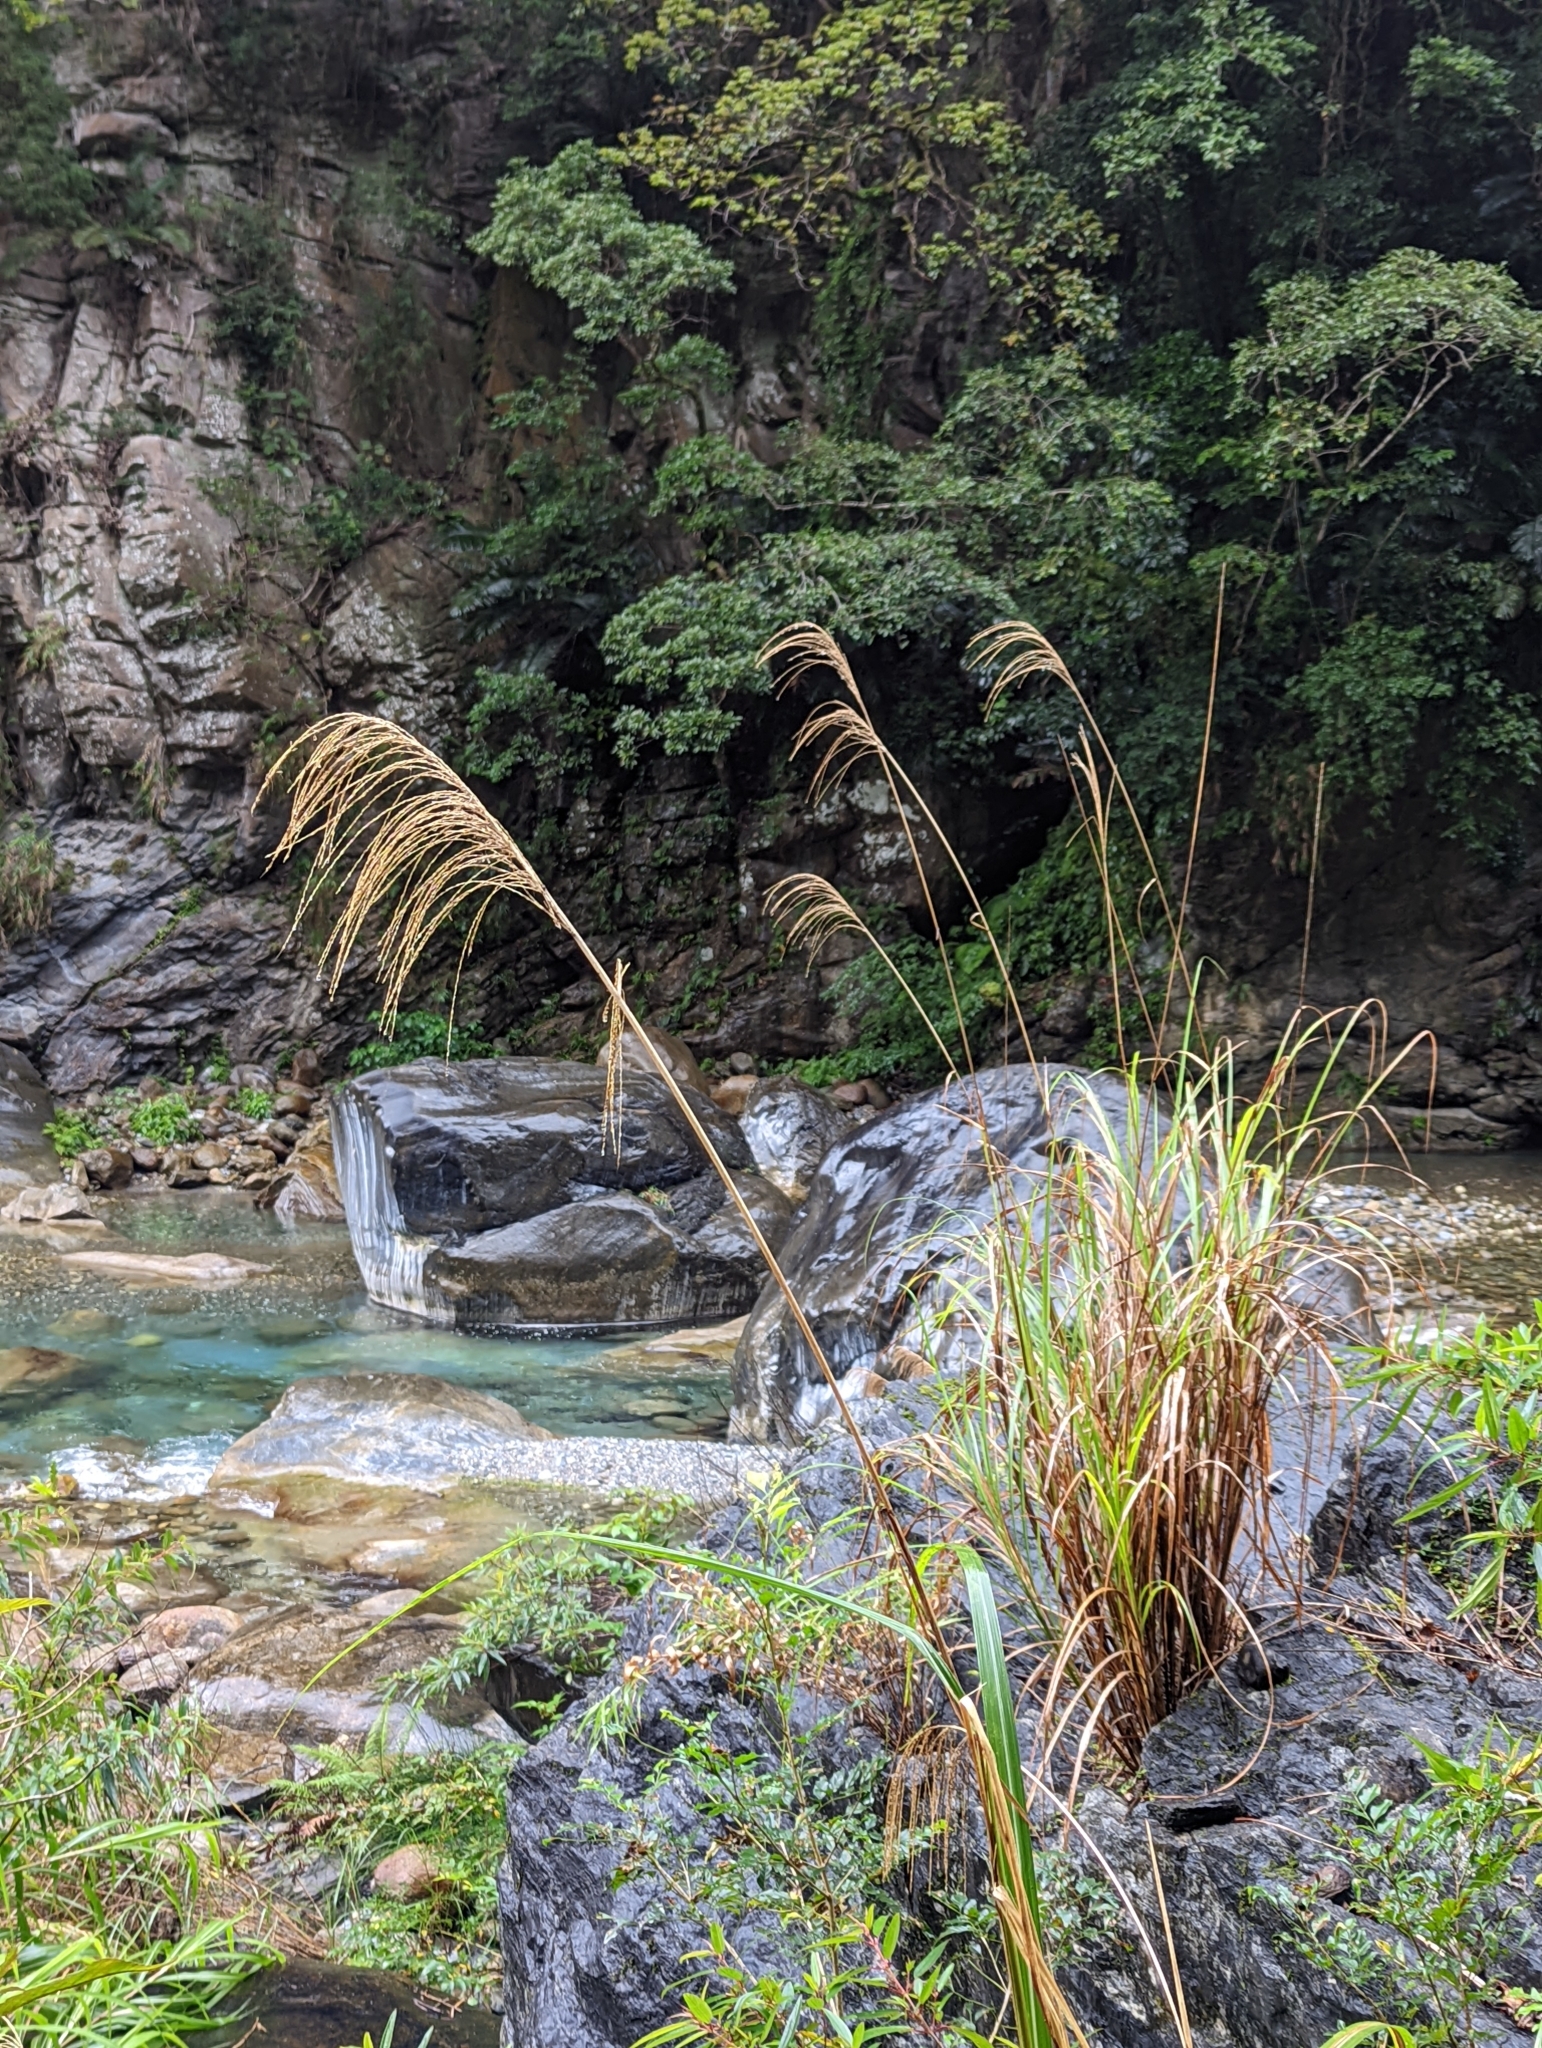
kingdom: Plantae
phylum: Tracheophyta
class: Liliopsida
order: Poales
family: Poaceae
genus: Miscanthus
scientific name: Miscanthus sinensis
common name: Chinese silvergrass
